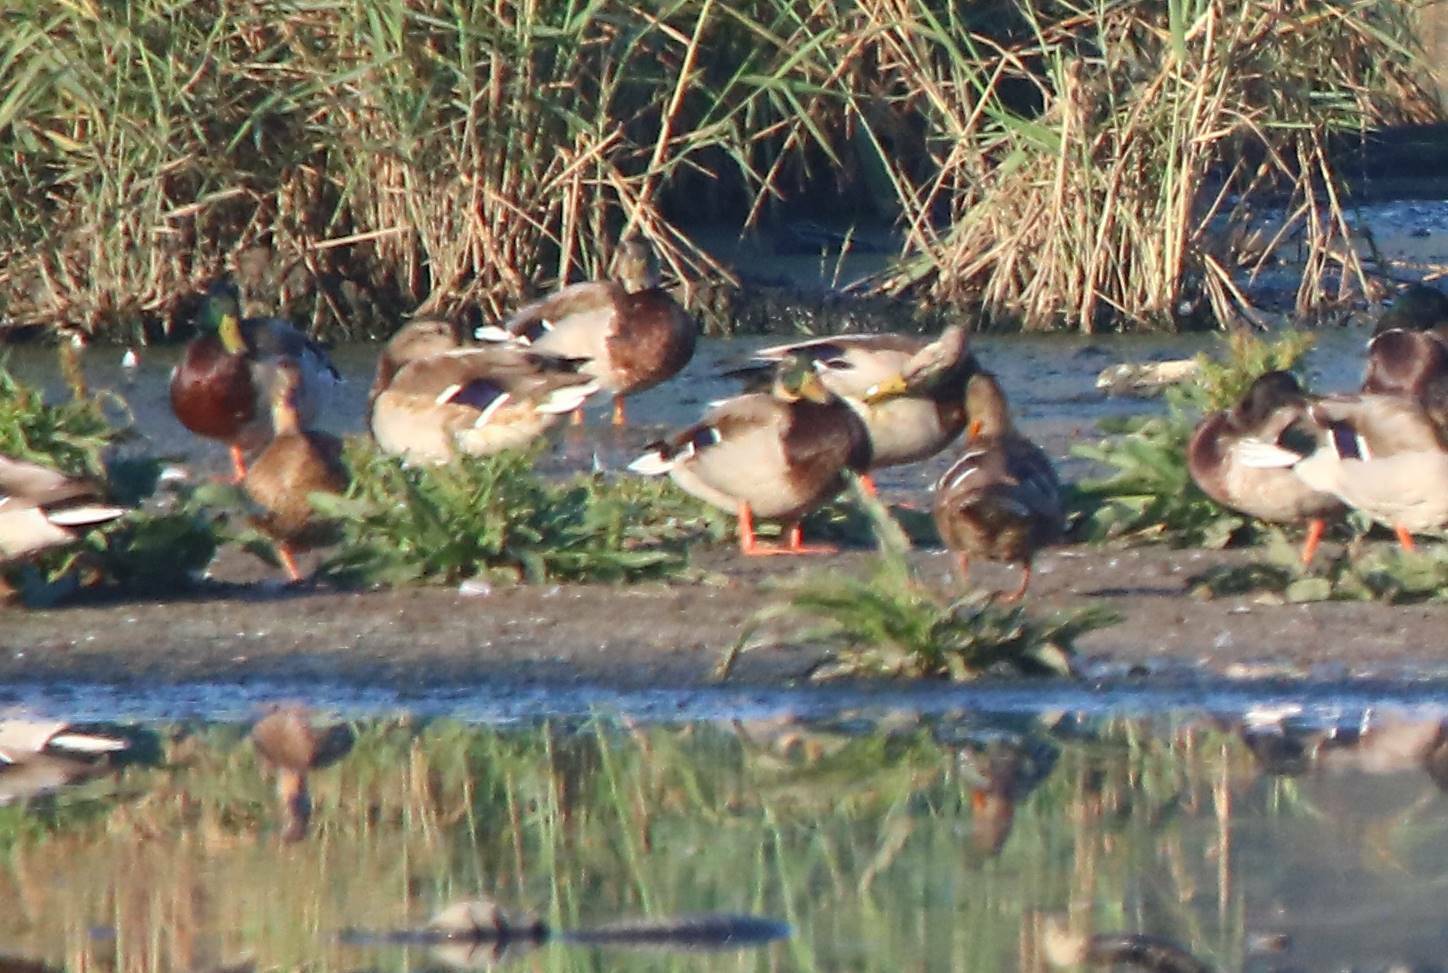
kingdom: Animalia
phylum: Chordata
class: Aves
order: Anseriformes
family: Anatidae
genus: Anas
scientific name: Anas platyrhynchos
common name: Mallard
